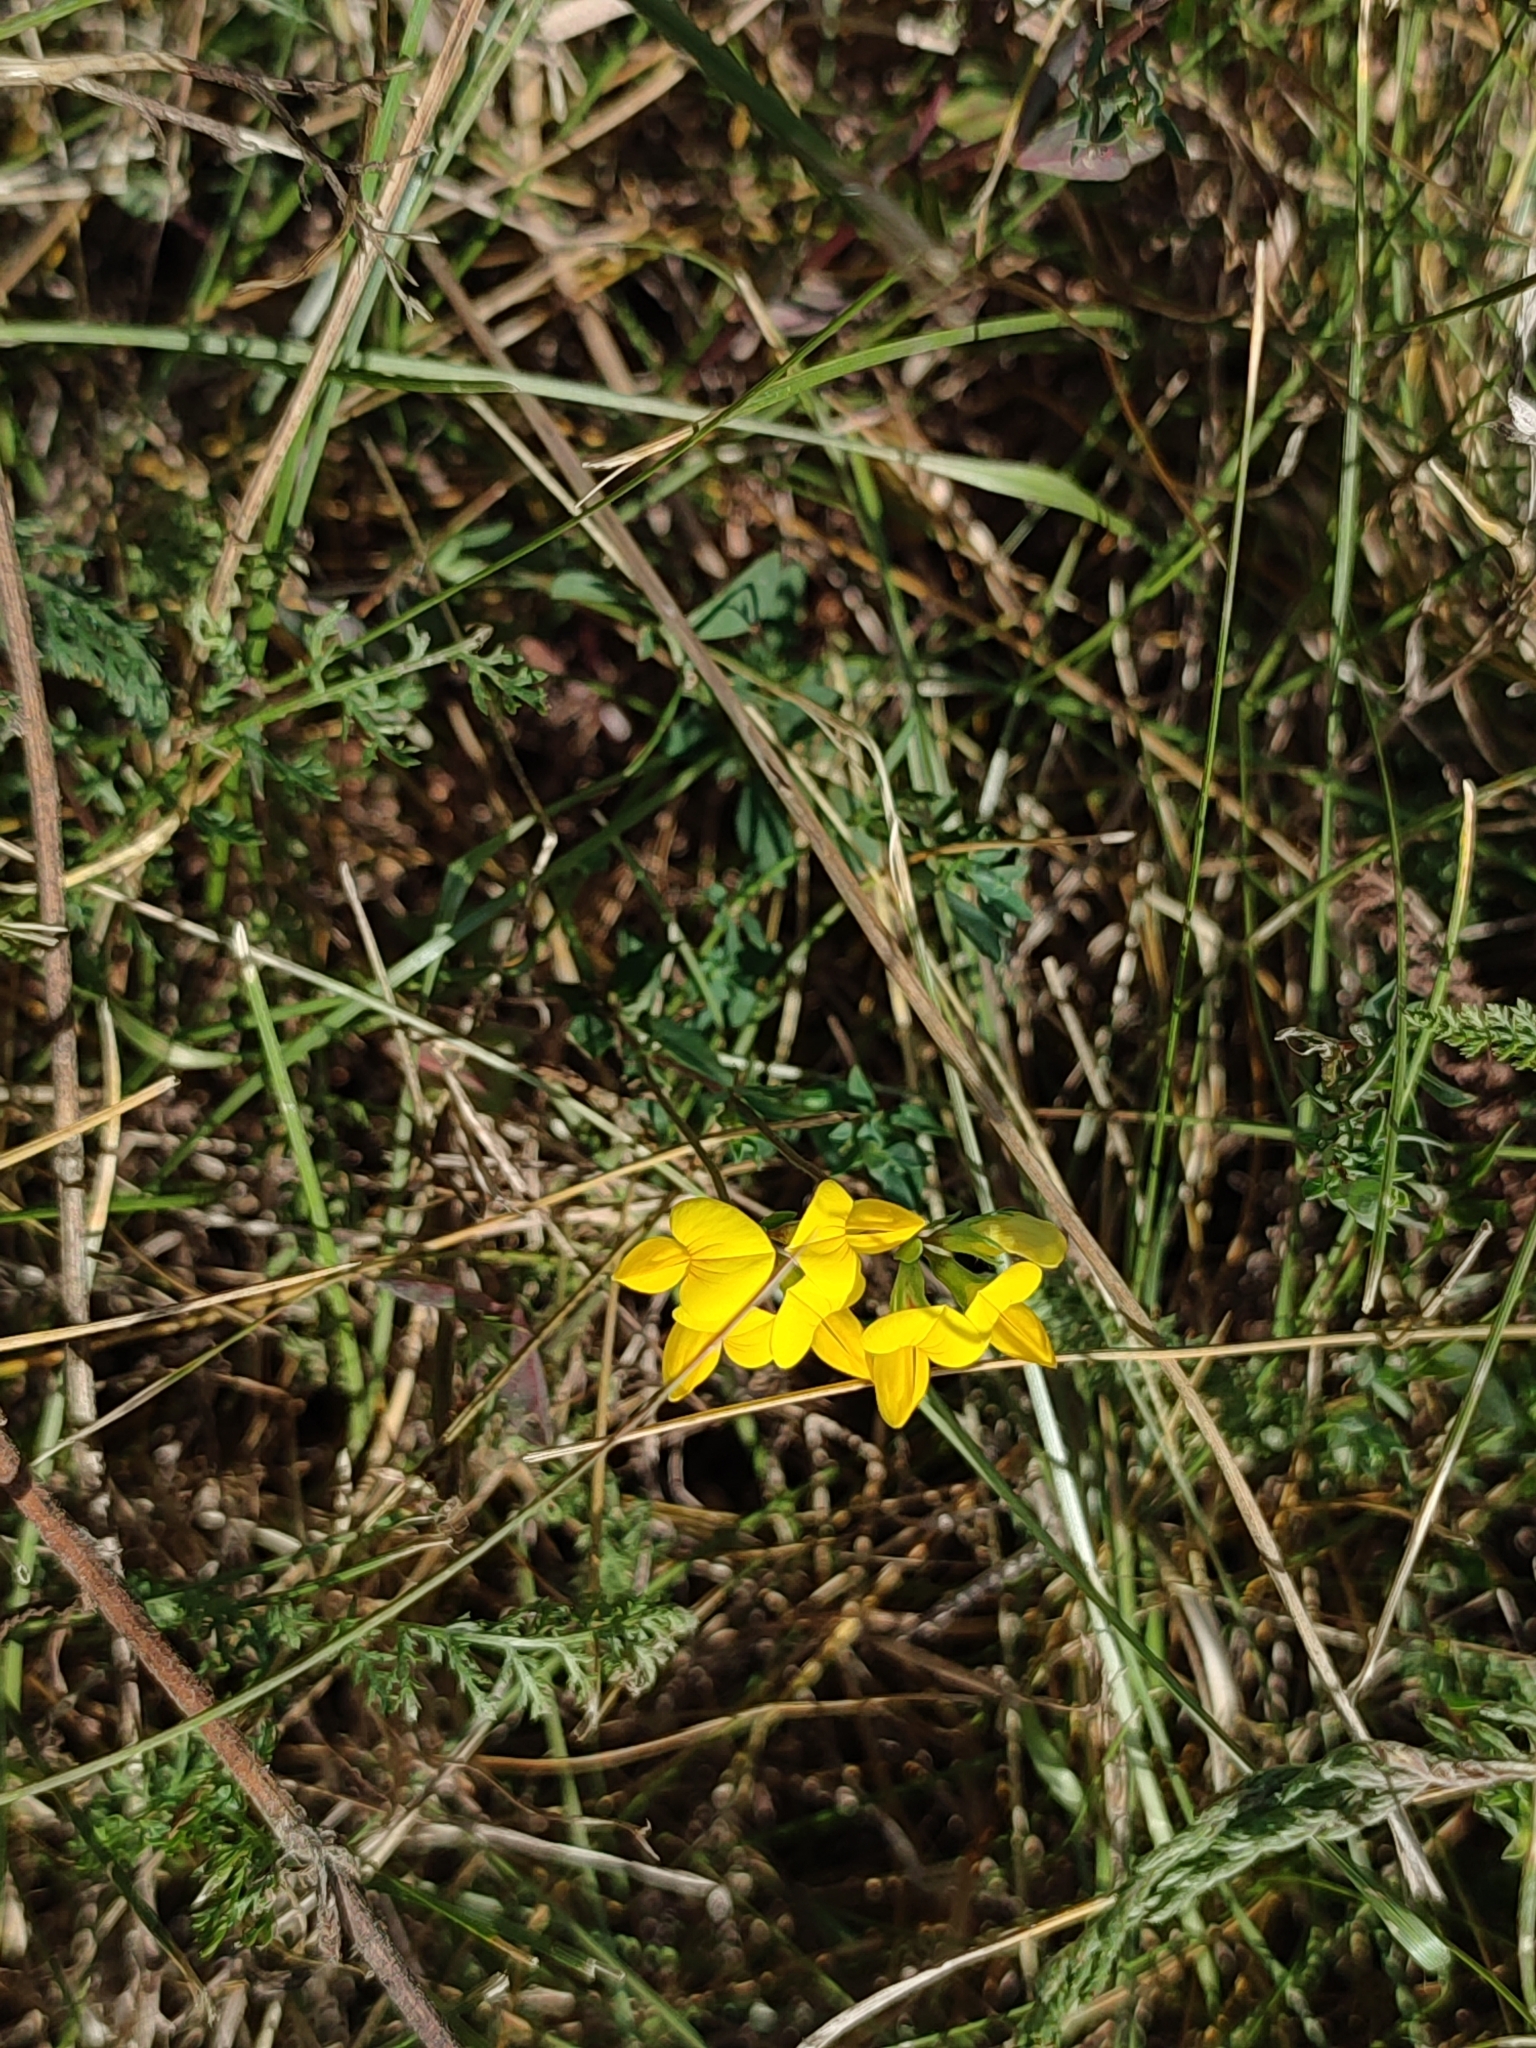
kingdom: Plantae
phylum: Tracheophyta
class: Magnoliopsida
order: Fabales
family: Fabaceae
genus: Lotus
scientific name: Lotus corniculatus
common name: Common bird's-foot-trefoil
